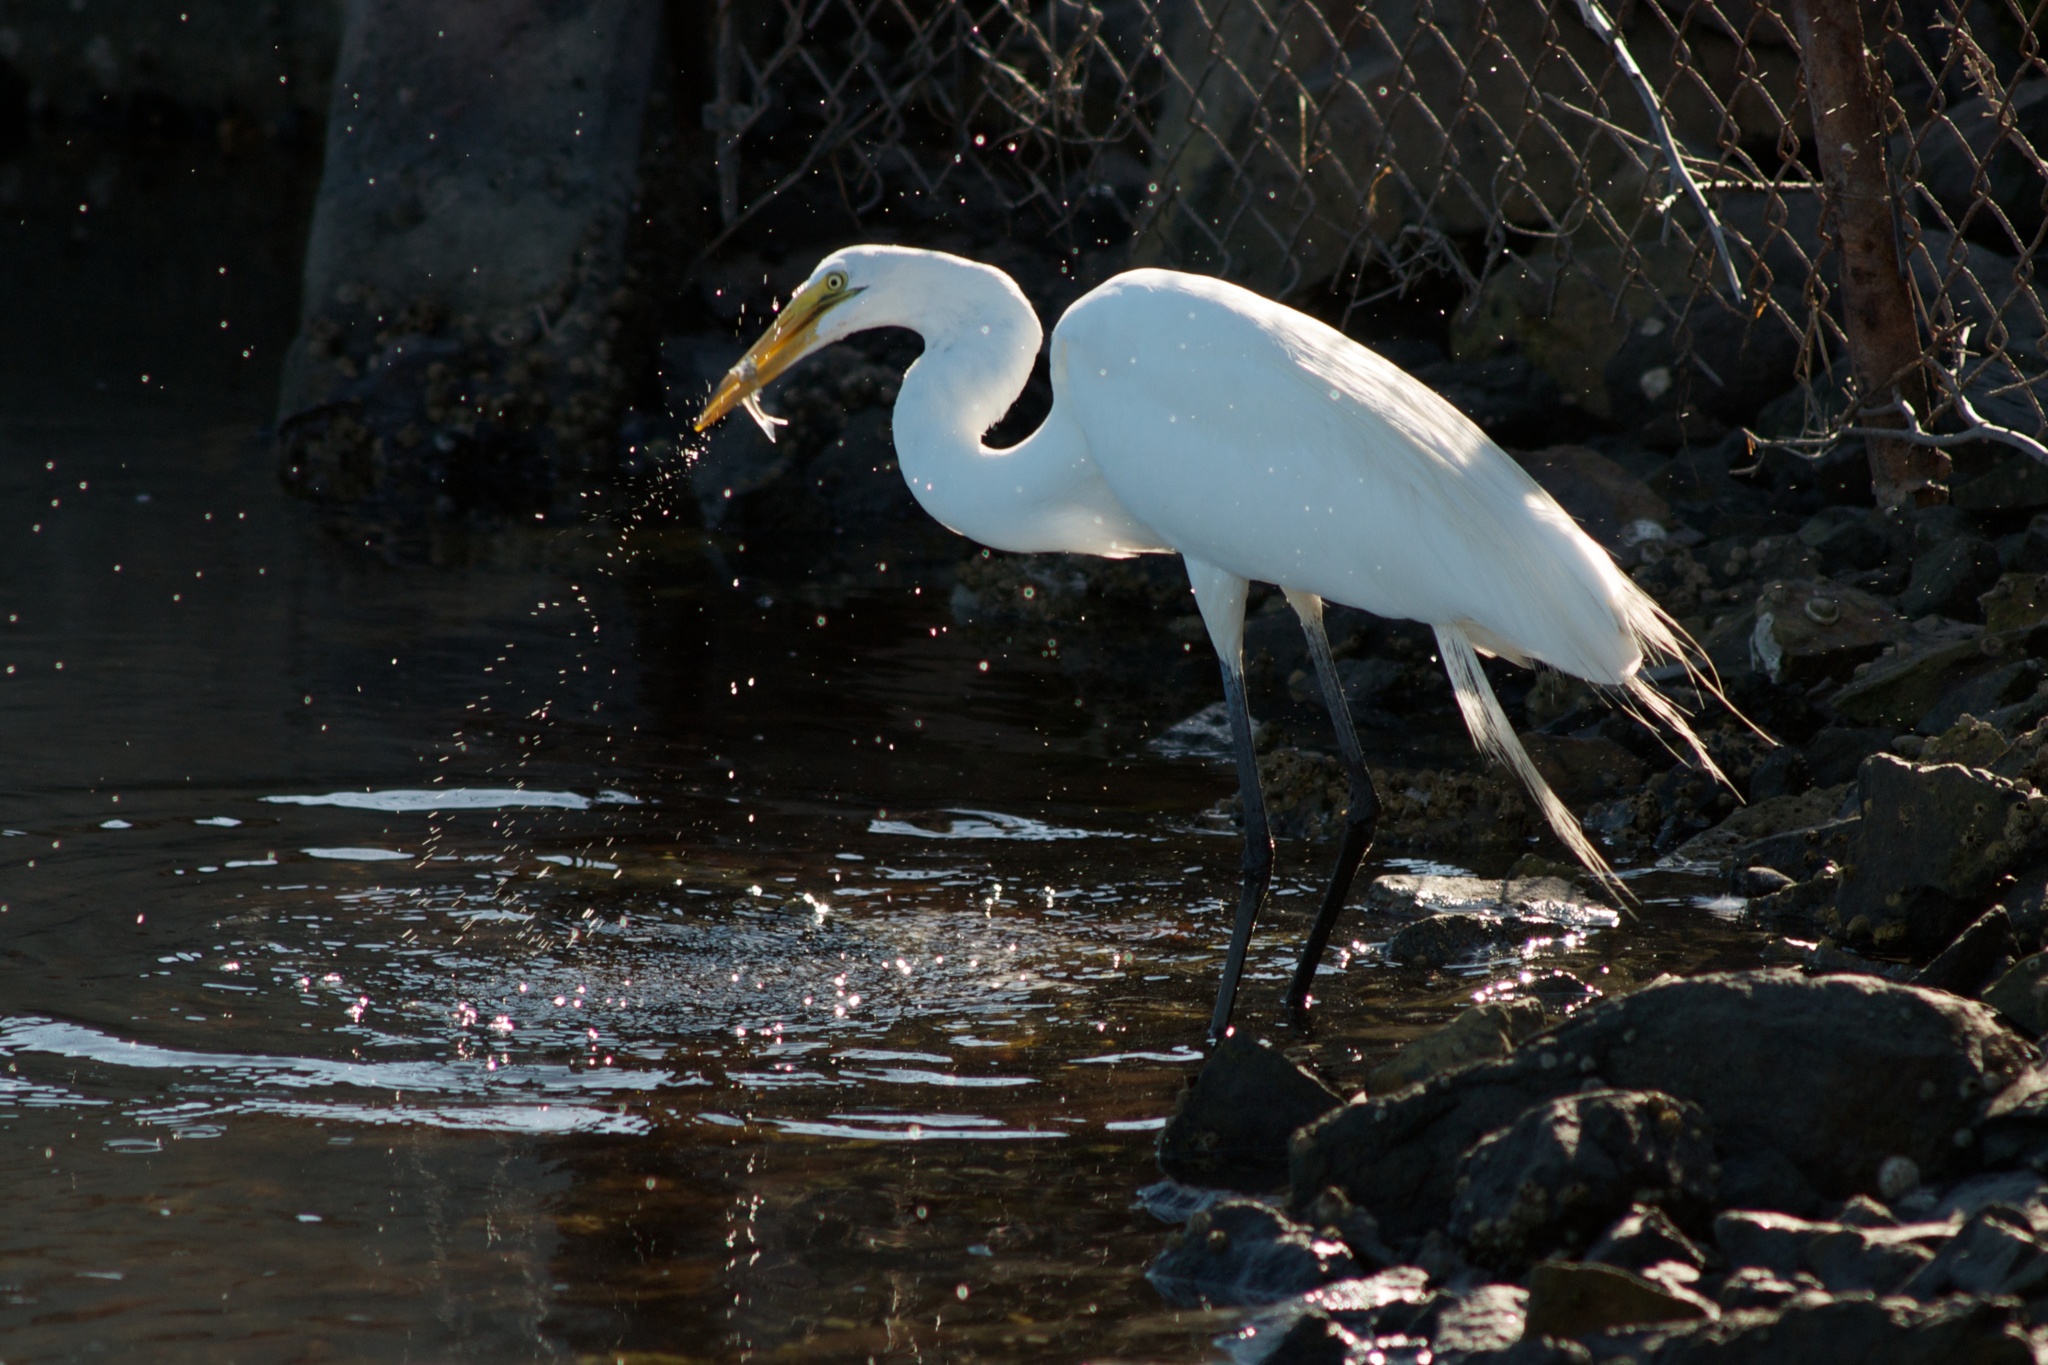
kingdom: Animalia
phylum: Chordata
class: Aves
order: Pelecaniformes
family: Ardeidae
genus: Ardea
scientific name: Ardea alba
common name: Great egret
